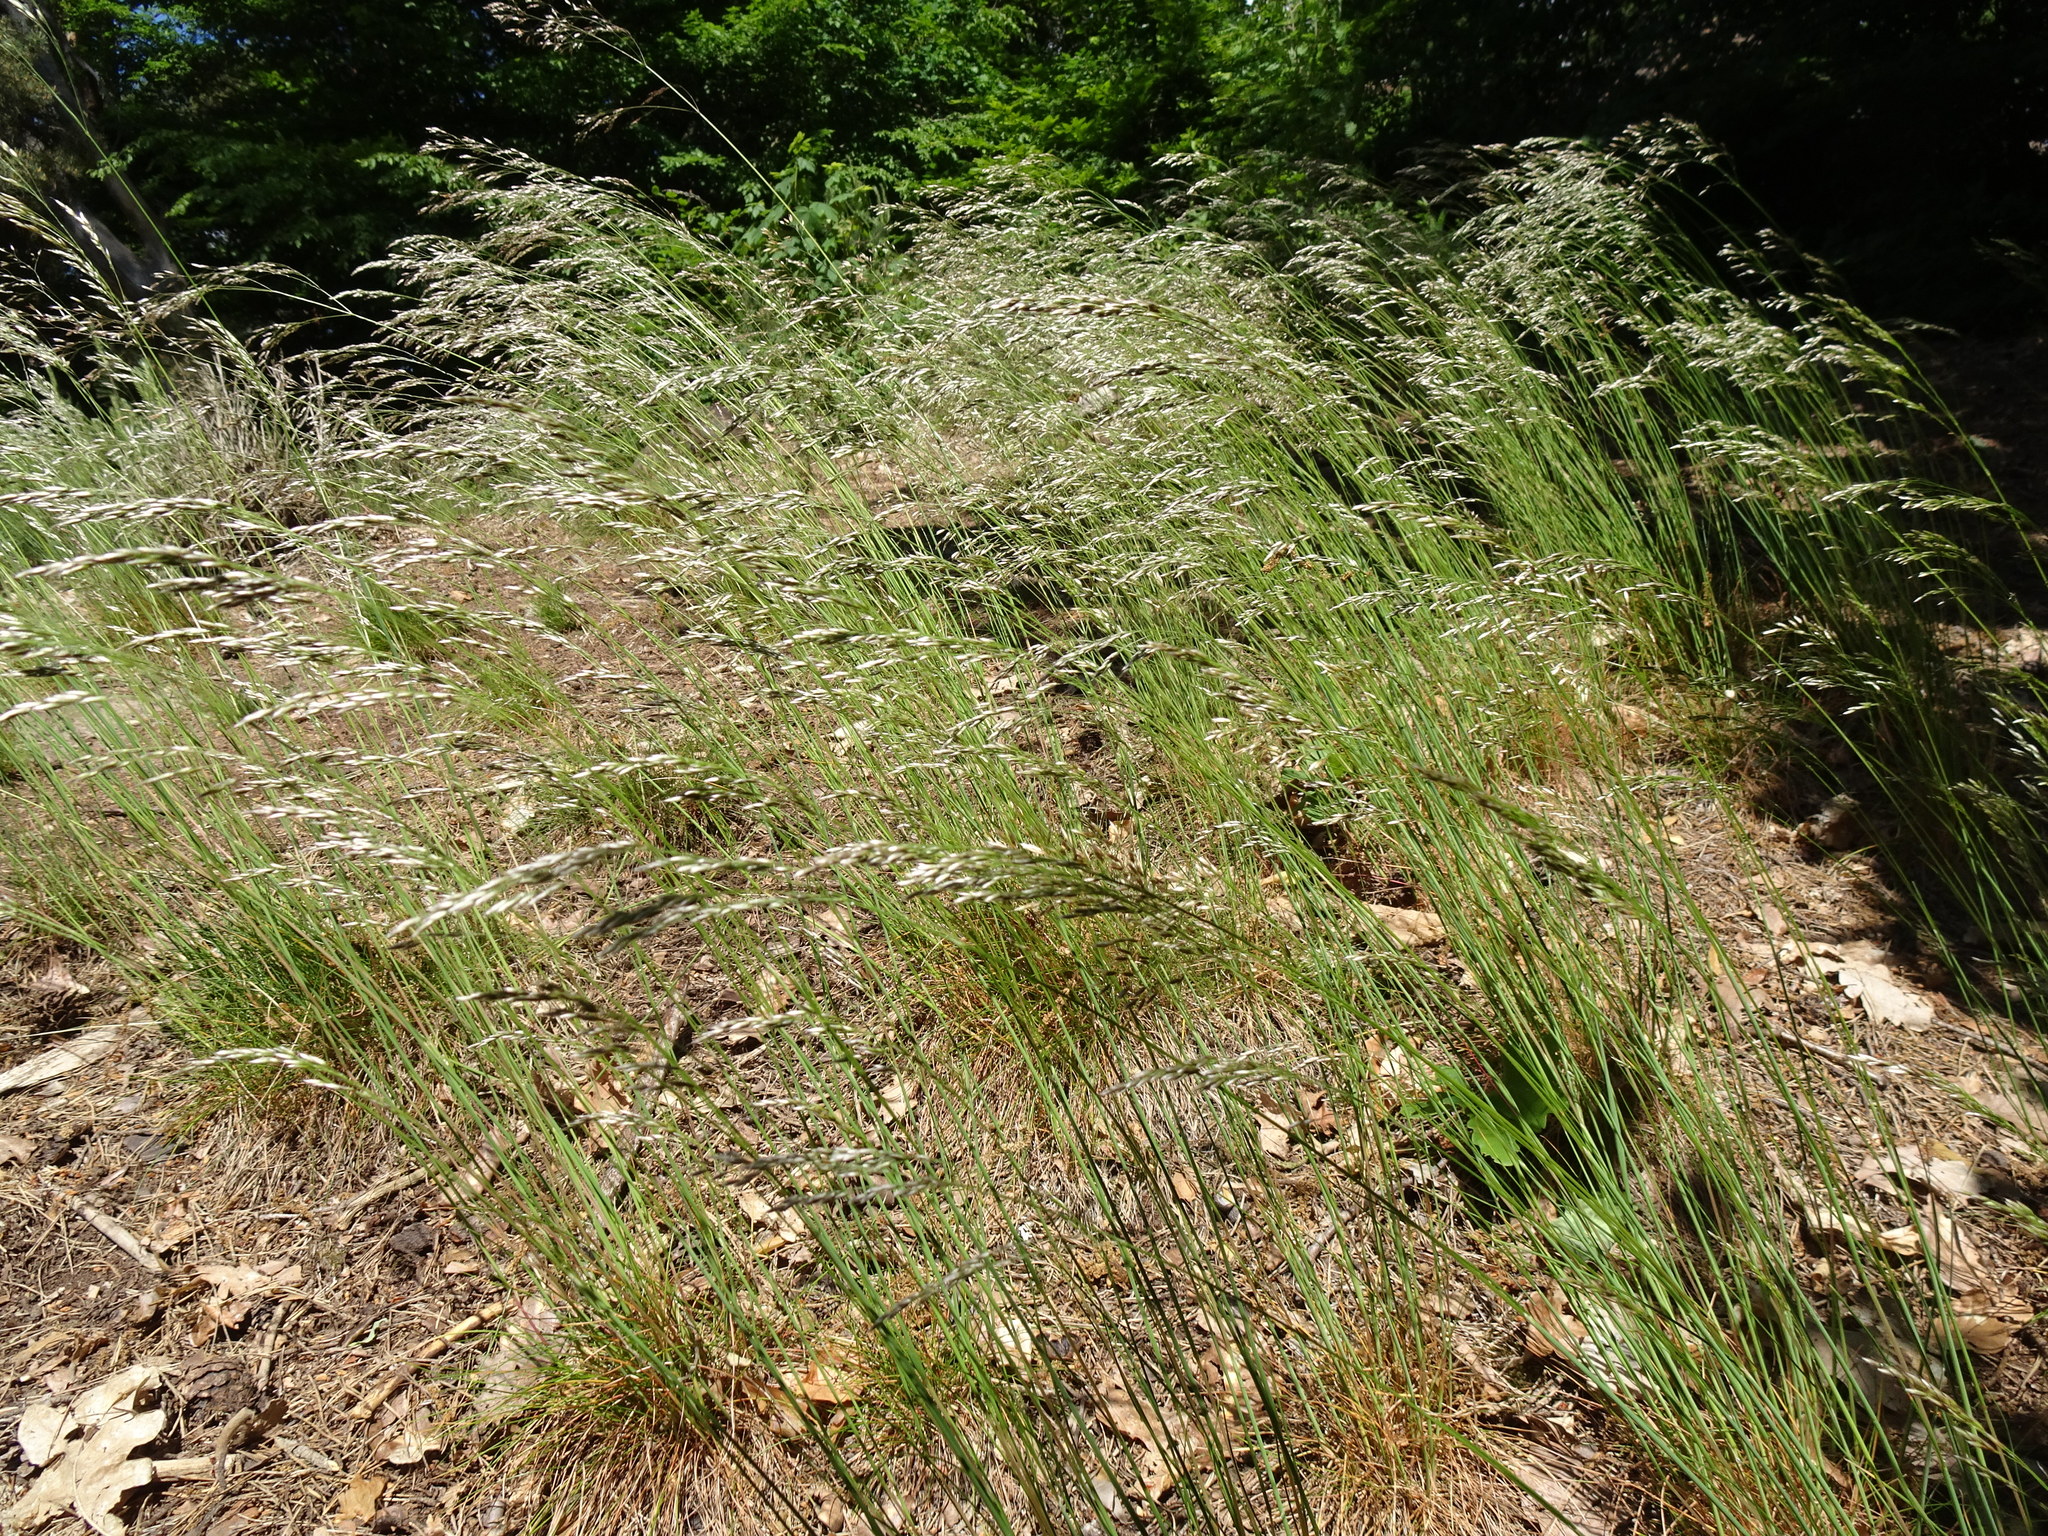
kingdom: Plantae
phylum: Tracheophyta
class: Liliopsida
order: Poales
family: Poaceae
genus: Avenella
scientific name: Avenella flexuosa
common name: Wavy hairgrass
